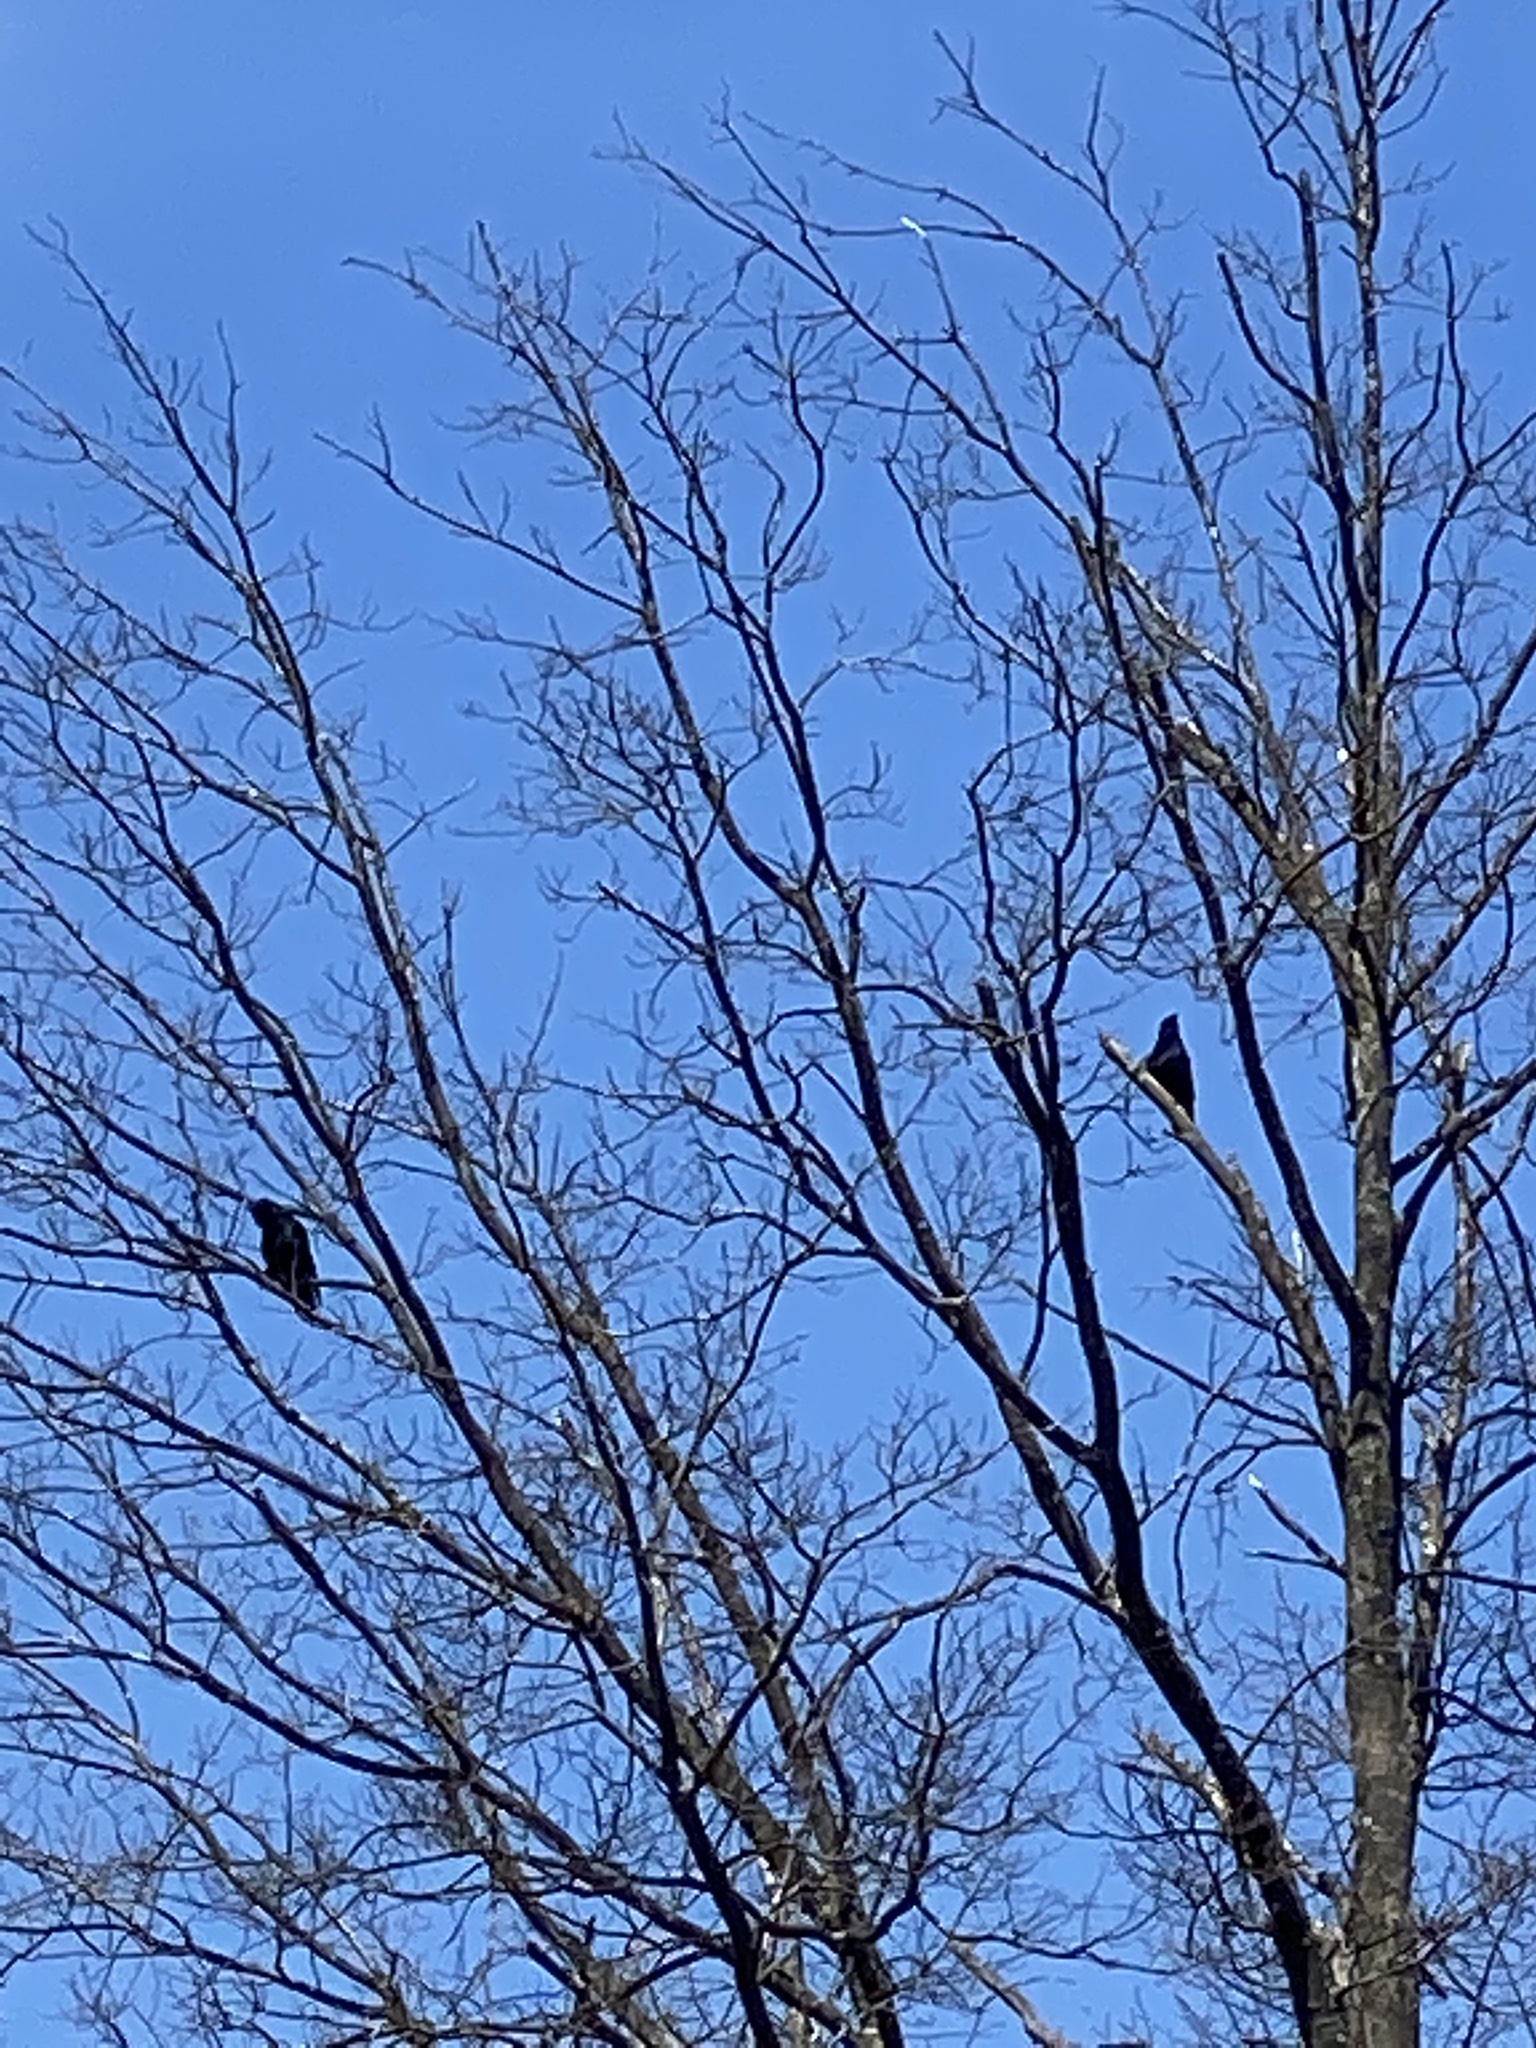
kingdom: Animalia
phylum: Chordata
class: Aves
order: Passeriformes
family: Corvidae
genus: Corvus
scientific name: Corvus ossifragus
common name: Fish crow
